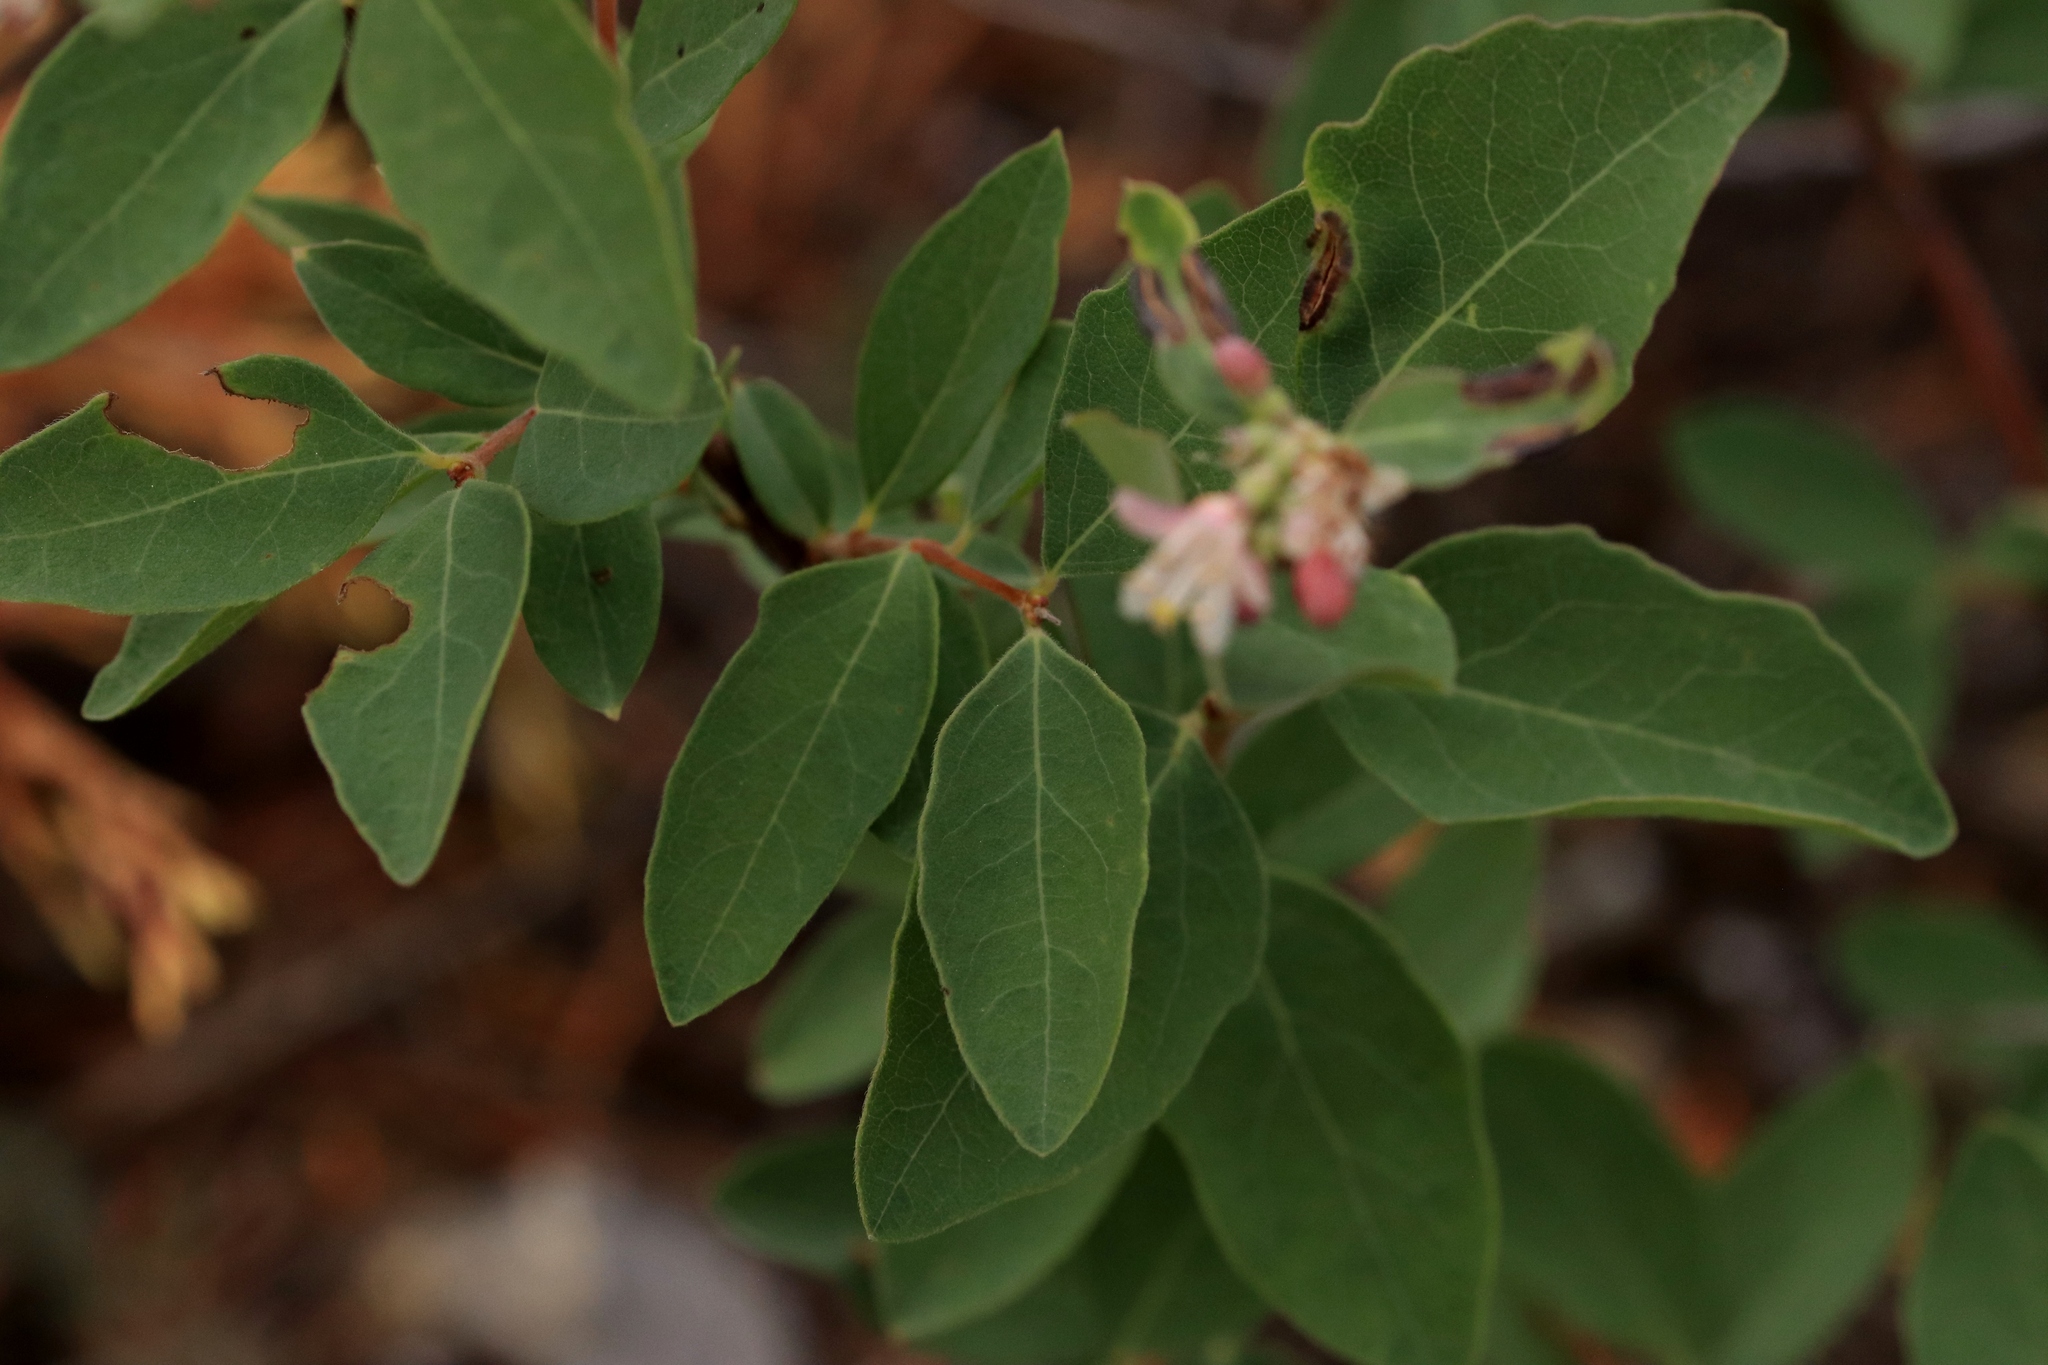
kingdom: Plantae
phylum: Tracheophyta
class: Magnoliopsida
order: Dipsacales
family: Caprifoliaceae
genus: Symphoricarpos
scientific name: Symphoricarpos occidentalis
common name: Wolfberry
